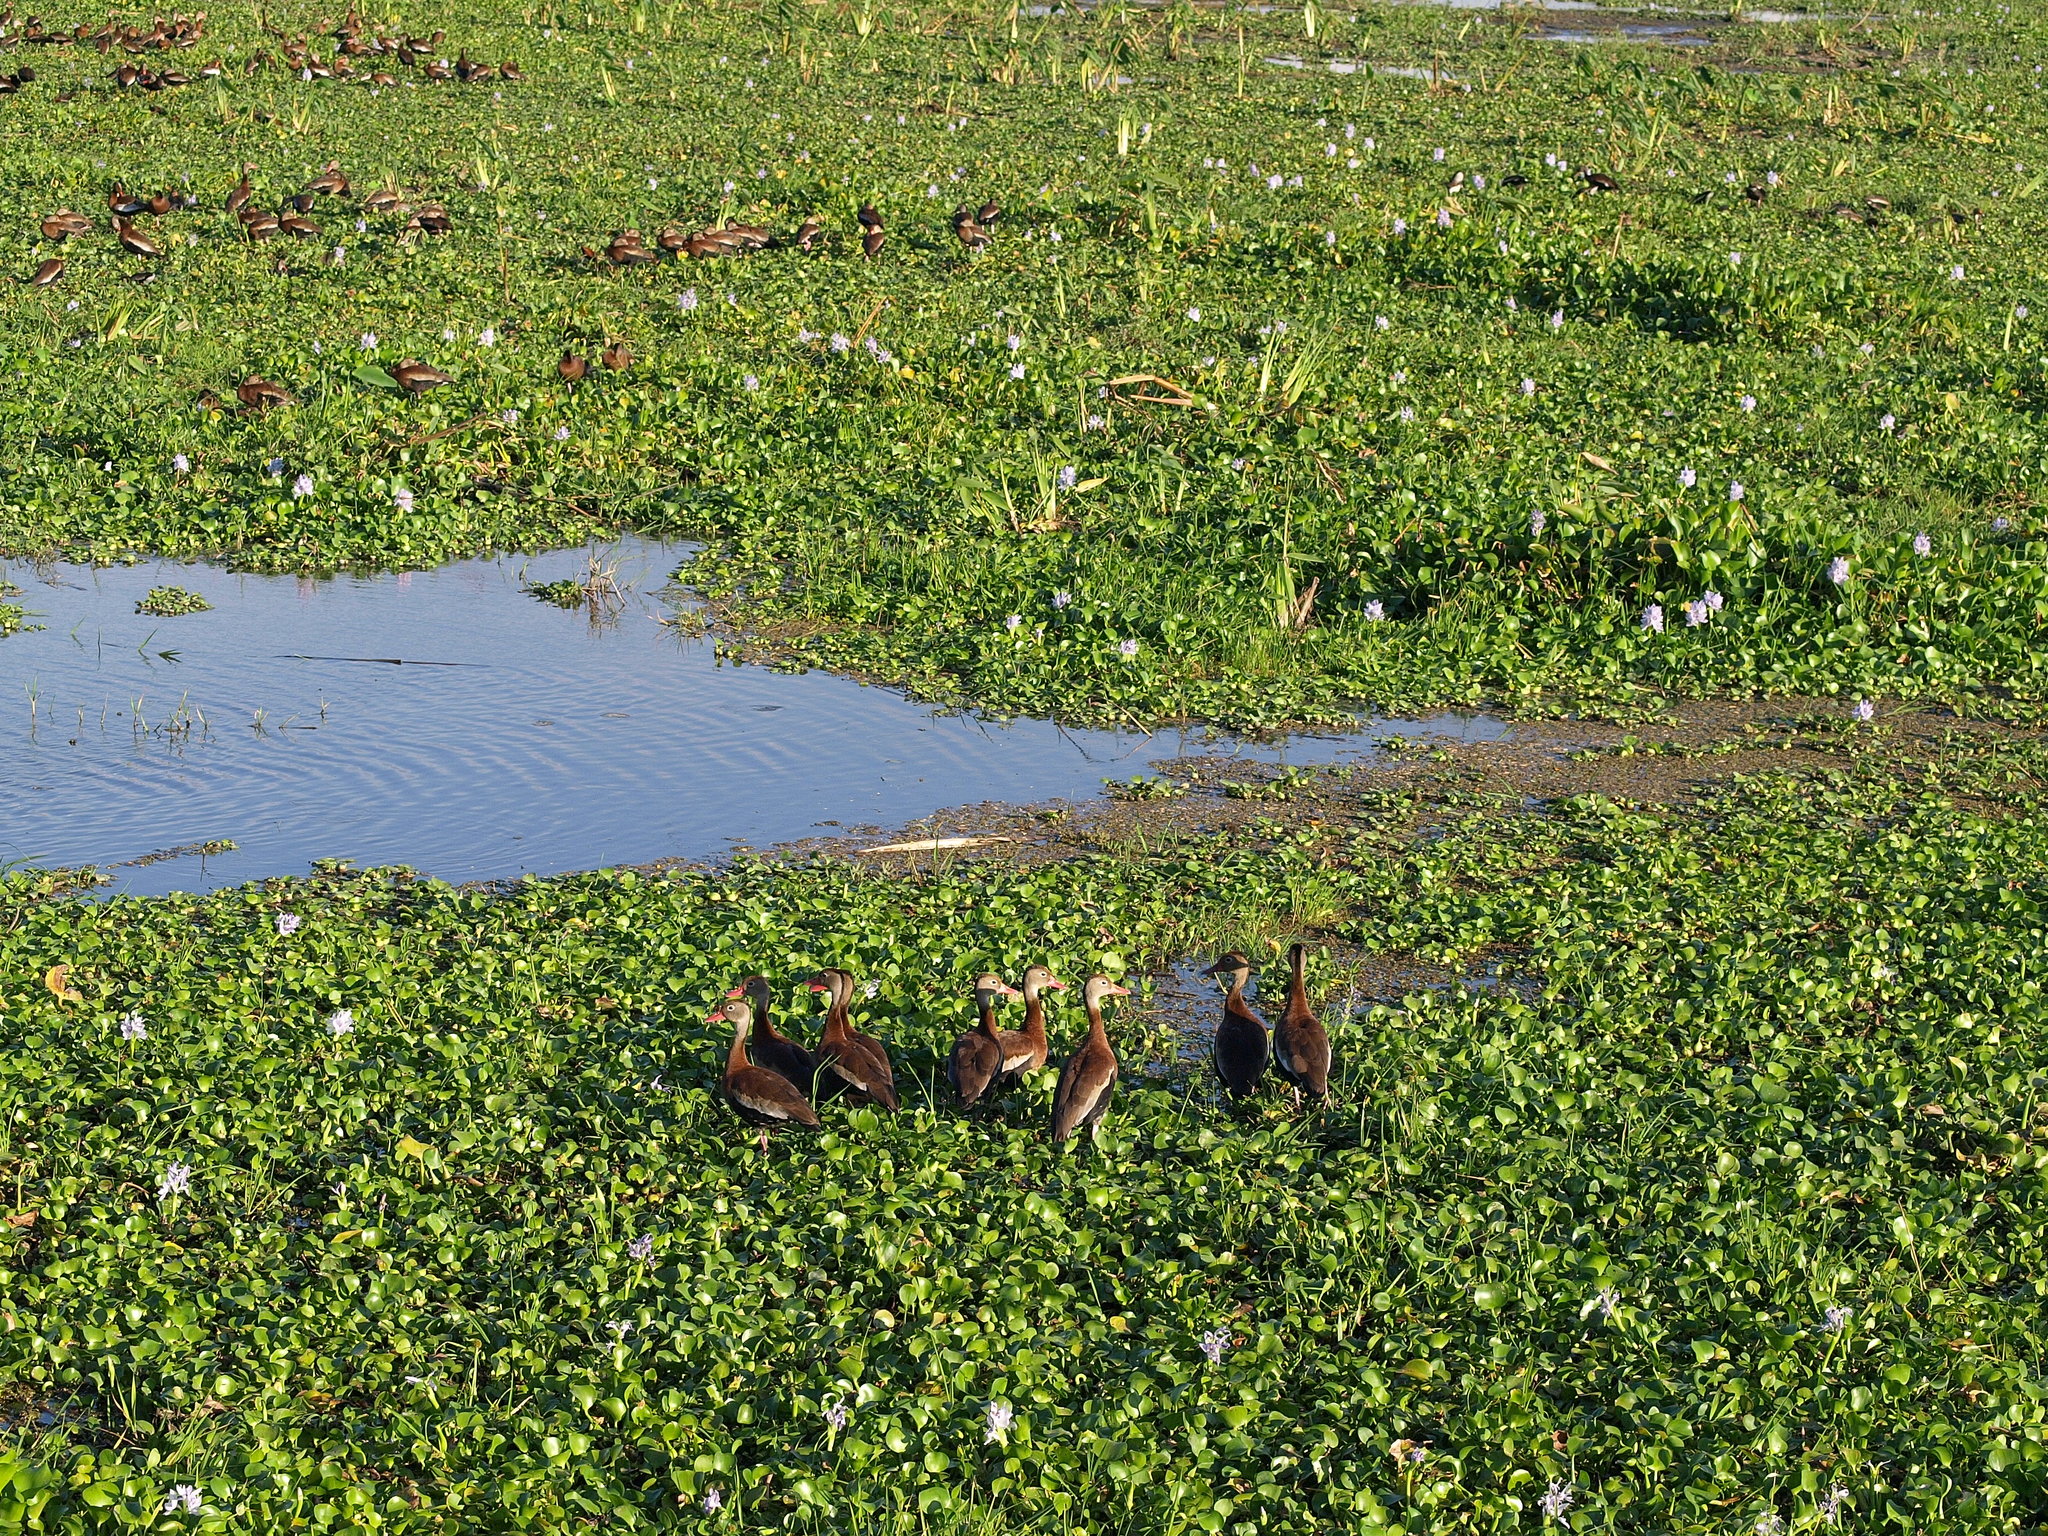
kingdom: Animalia
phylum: Chordata
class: Aves
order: Anseriformes
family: Anatidae
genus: Dendrocygna
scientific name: Dendrocygna autumnalis
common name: Black-bellied whistling duck
